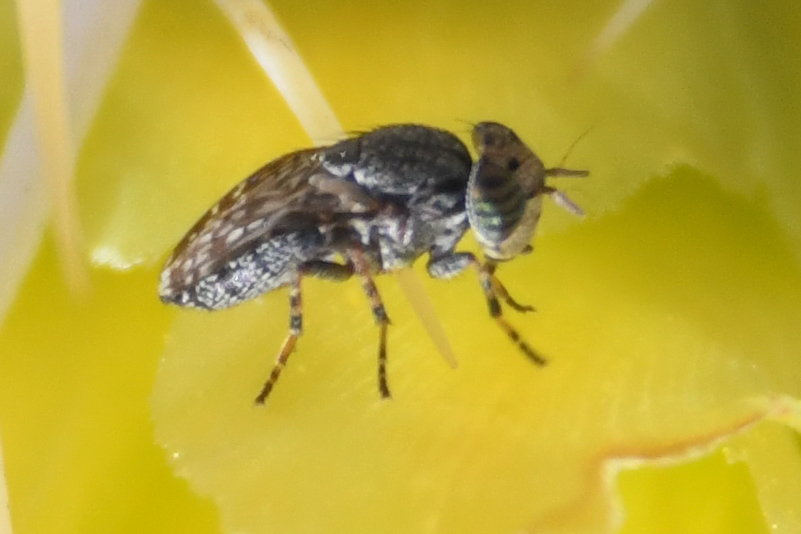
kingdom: Animalia
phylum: Arthropoda
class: Insecta
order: Diptera
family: Ulidiidae
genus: Stictomyia
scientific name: Stictomyia punctata
